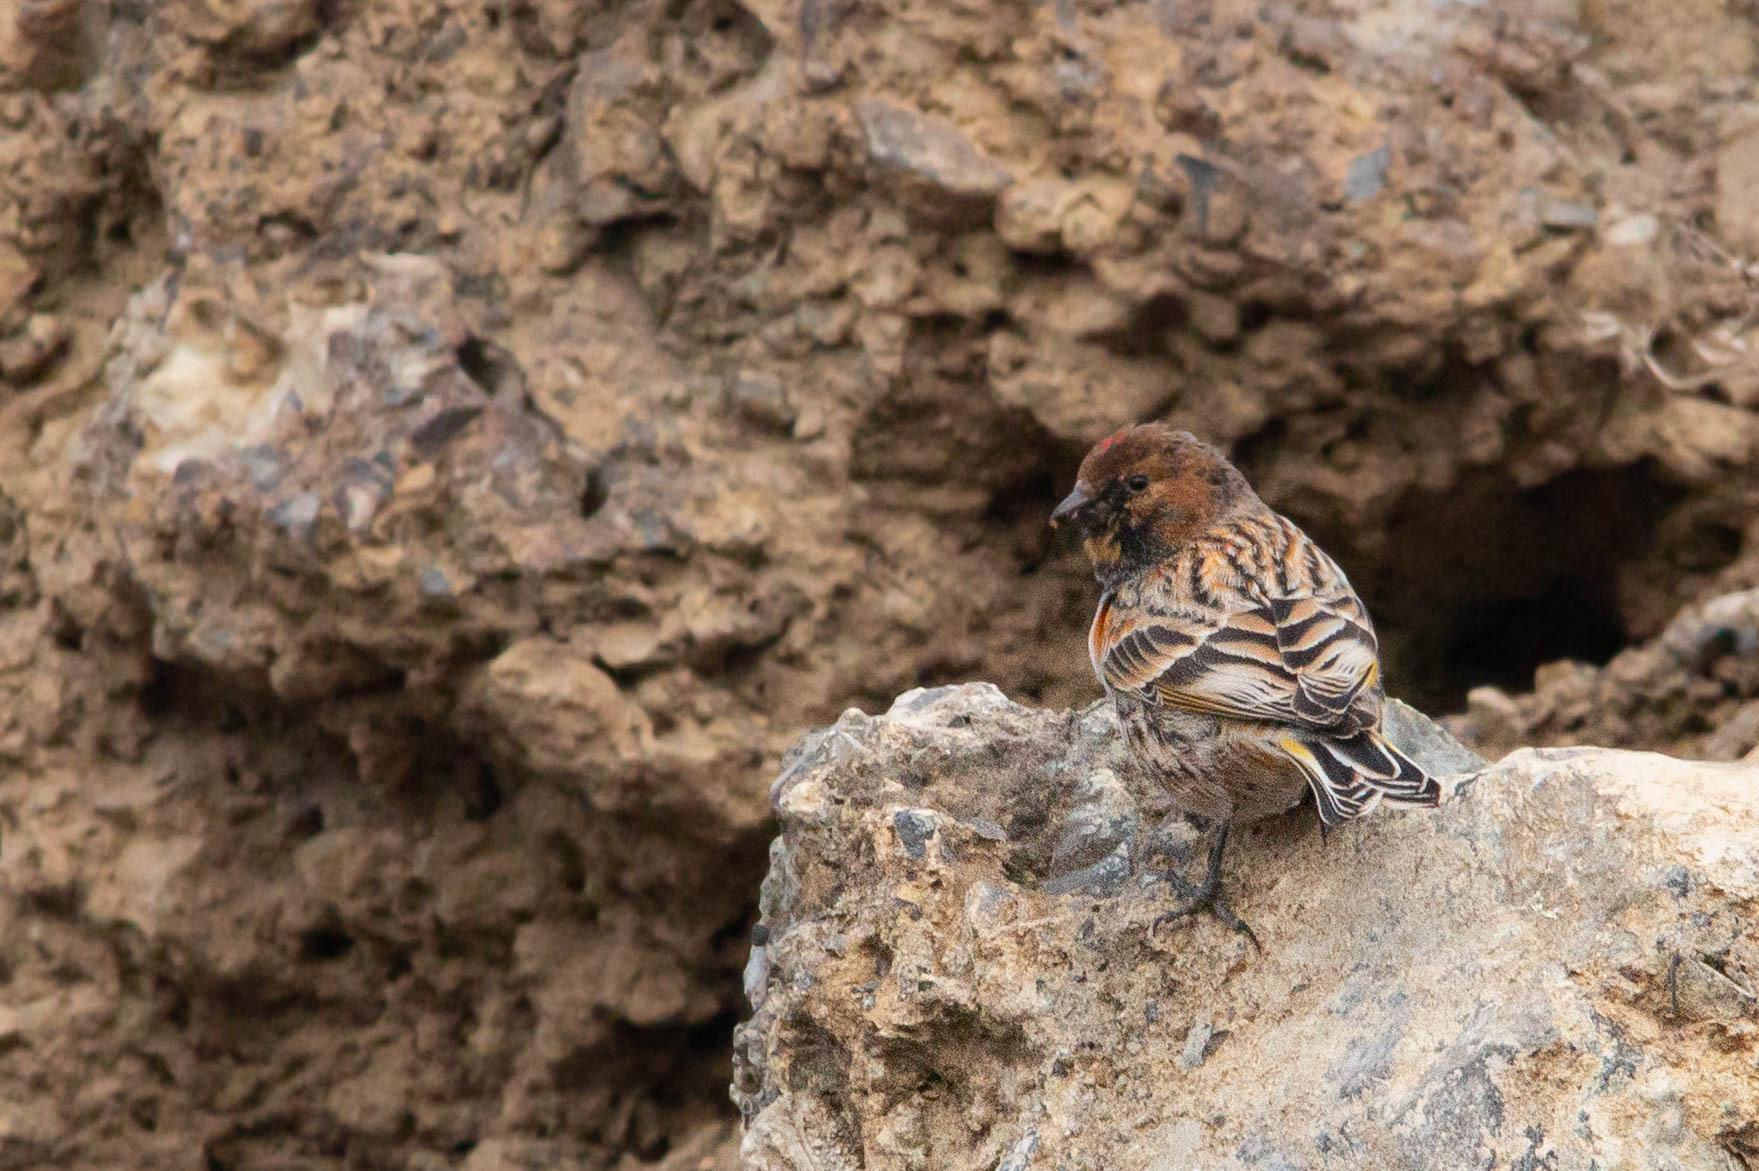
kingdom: Animalia
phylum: Chordata
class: Aves
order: Passeriformes
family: Fringillidae
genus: Serinus
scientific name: Serinus pusillus
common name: Red-fronted serin
